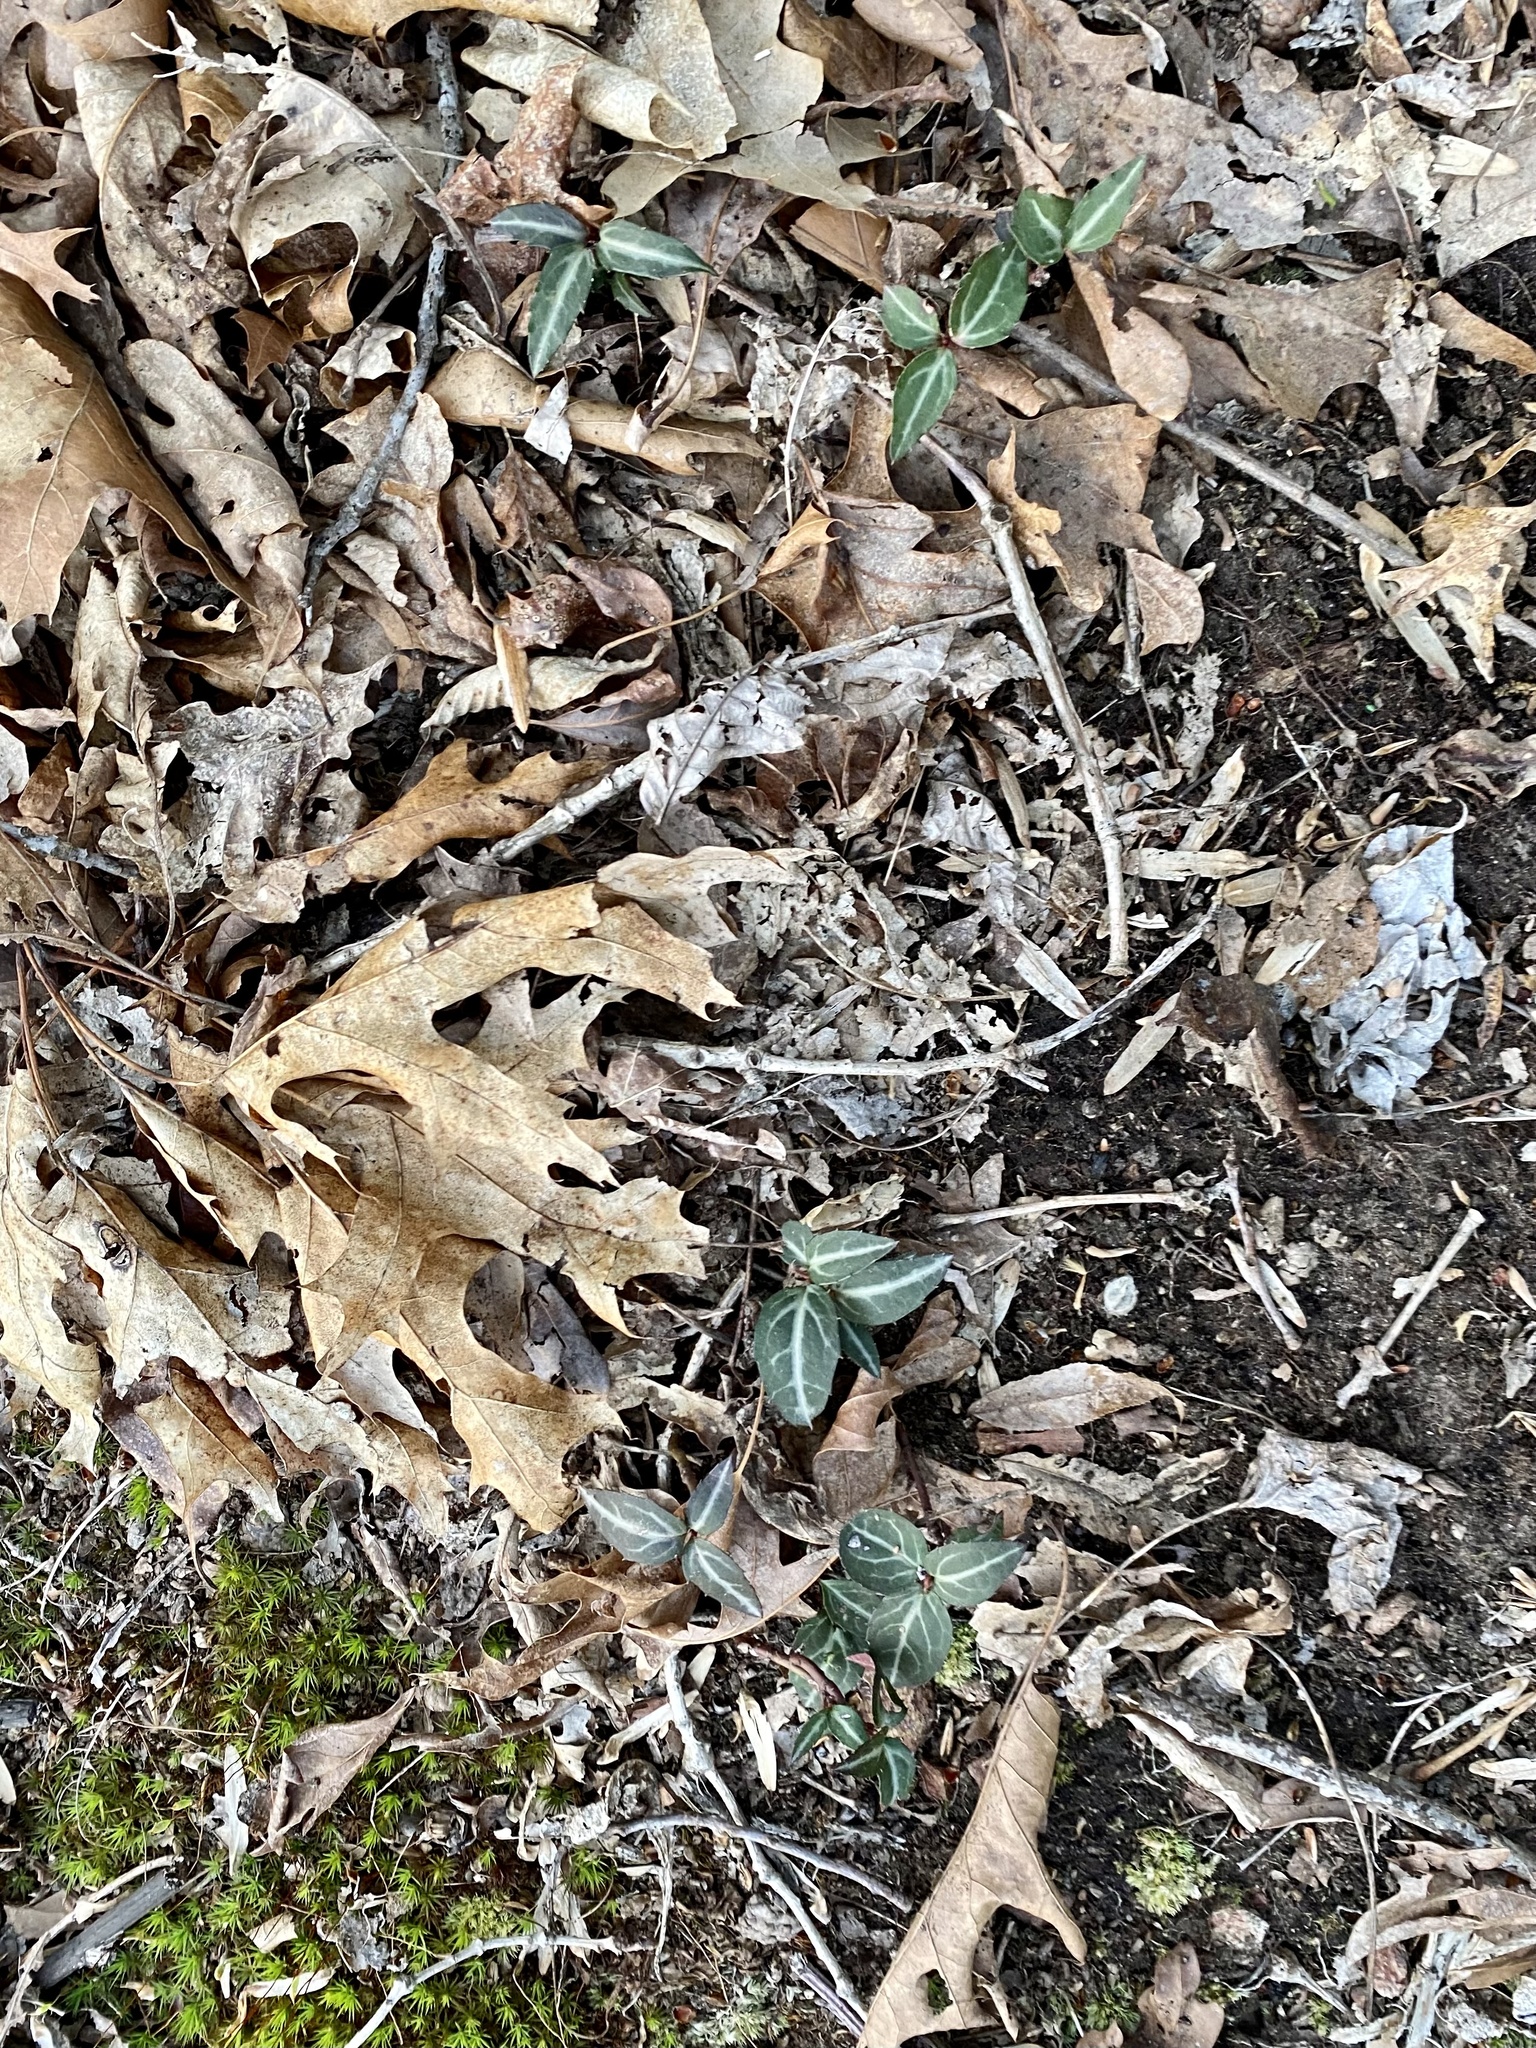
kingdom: Plantae
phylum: Tracheophyta
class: Magnoliopsida
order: Ericales
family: Ericaceae
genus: Chimaphila
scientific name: Chimaphila maculata
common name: Spotted pipsissewa
